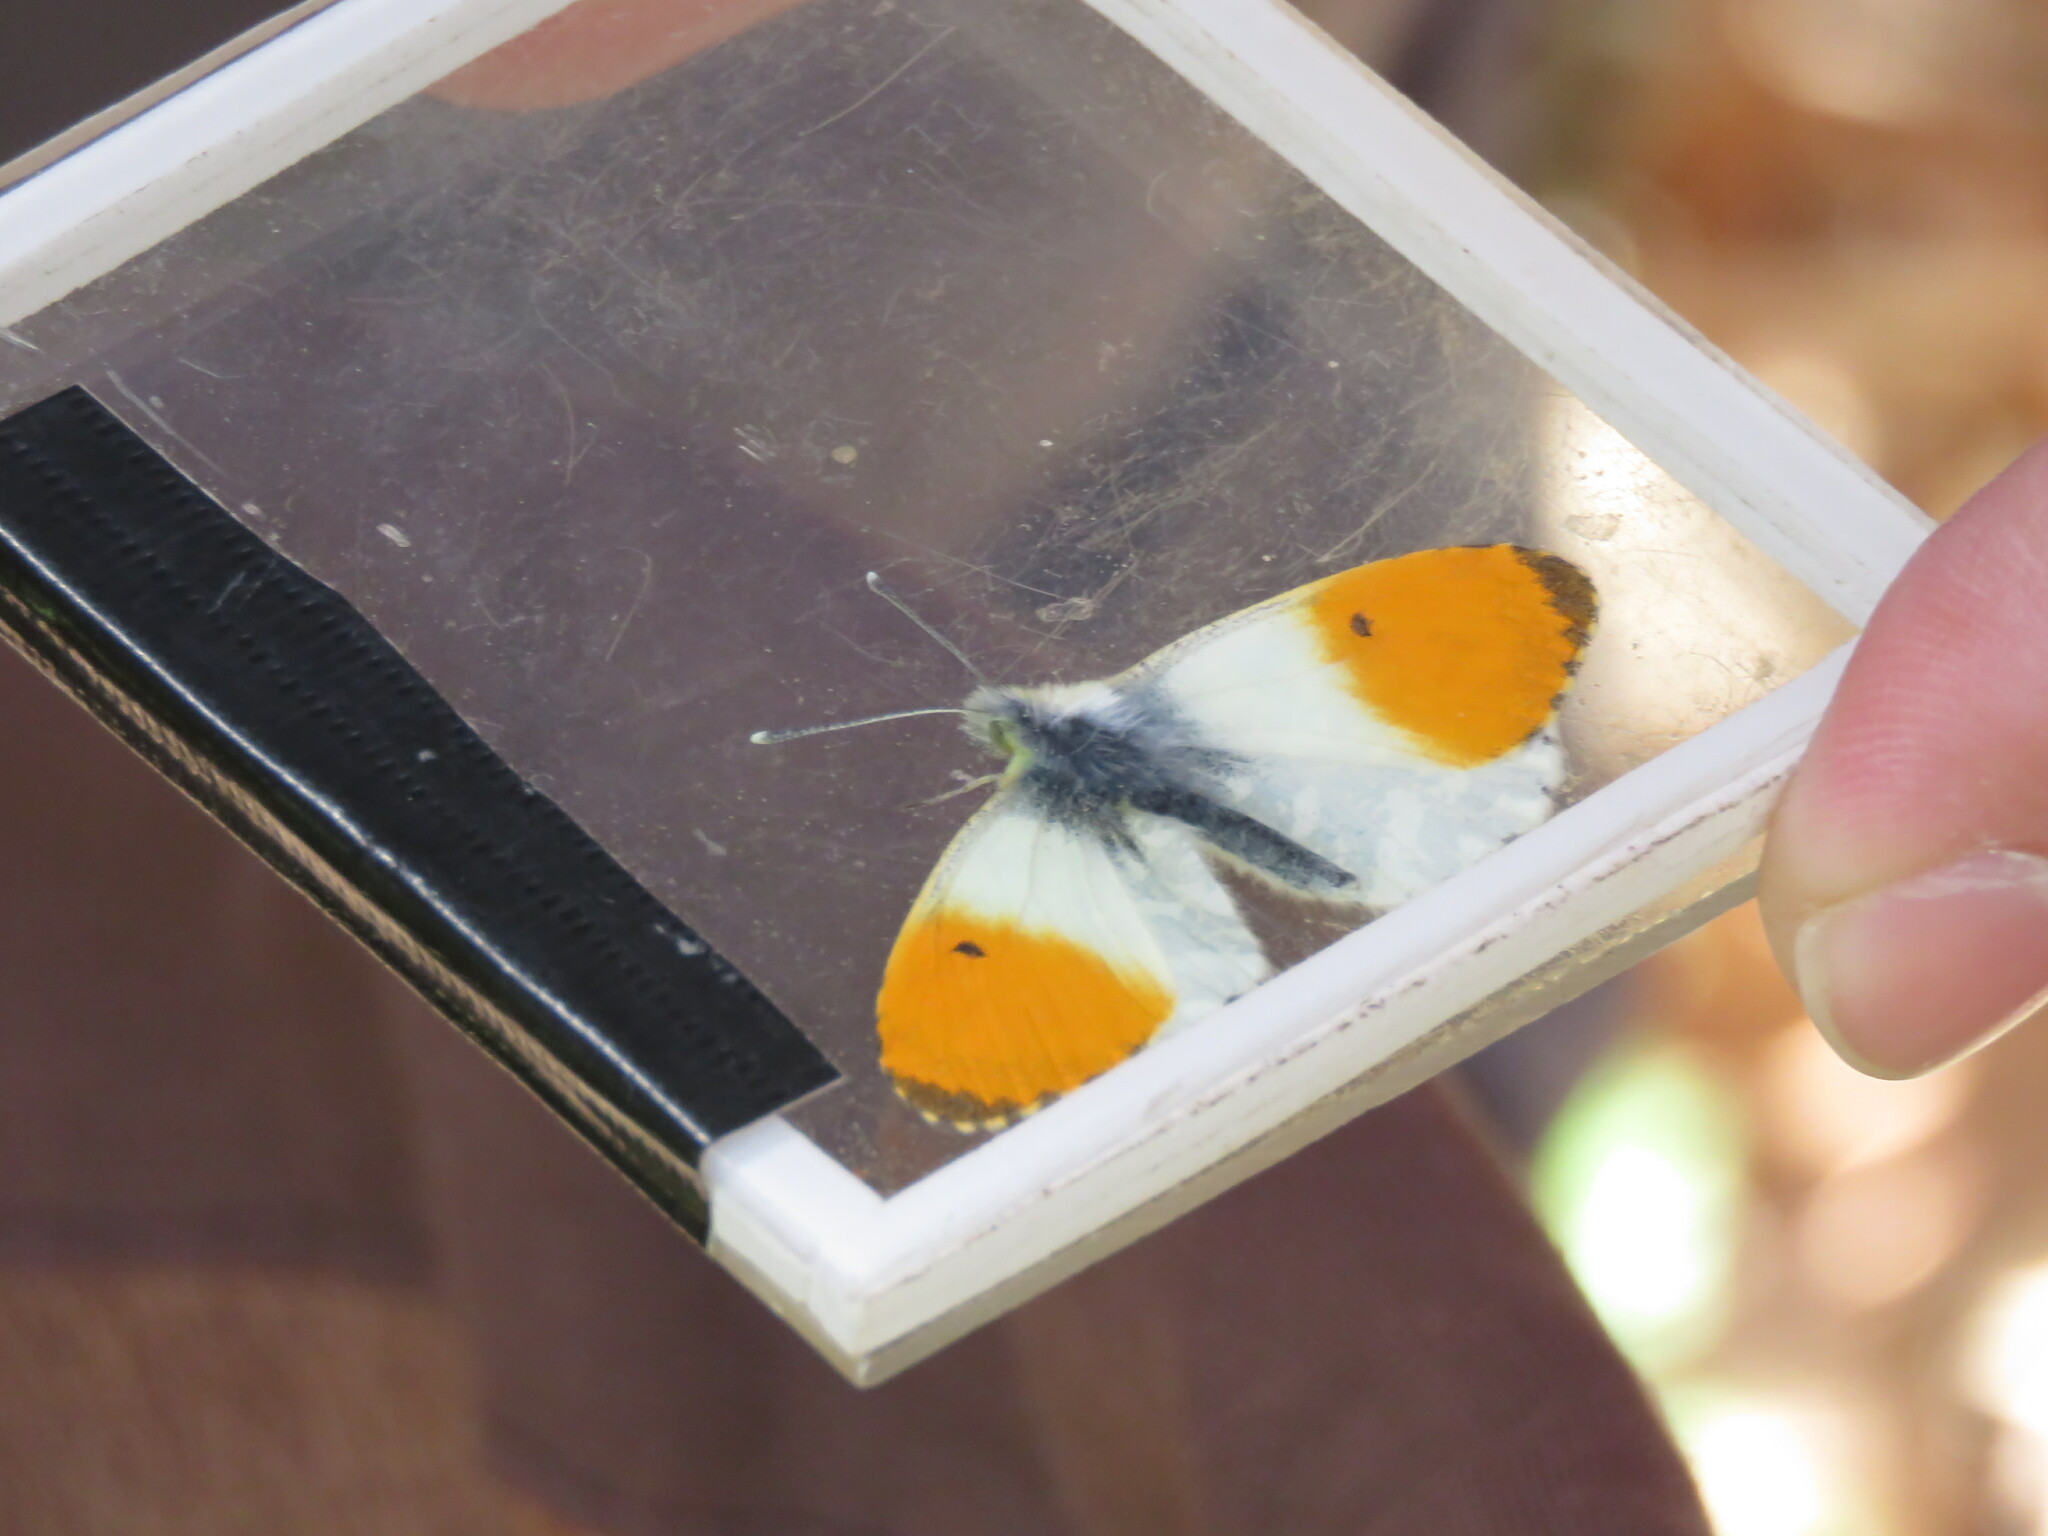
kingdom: Animalia
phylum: Arthropoda
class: Insecta
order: Lepidoptera
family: Pieridae
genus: Anthocharis
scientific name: Anthocharis cardamines
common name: Orange-tip
